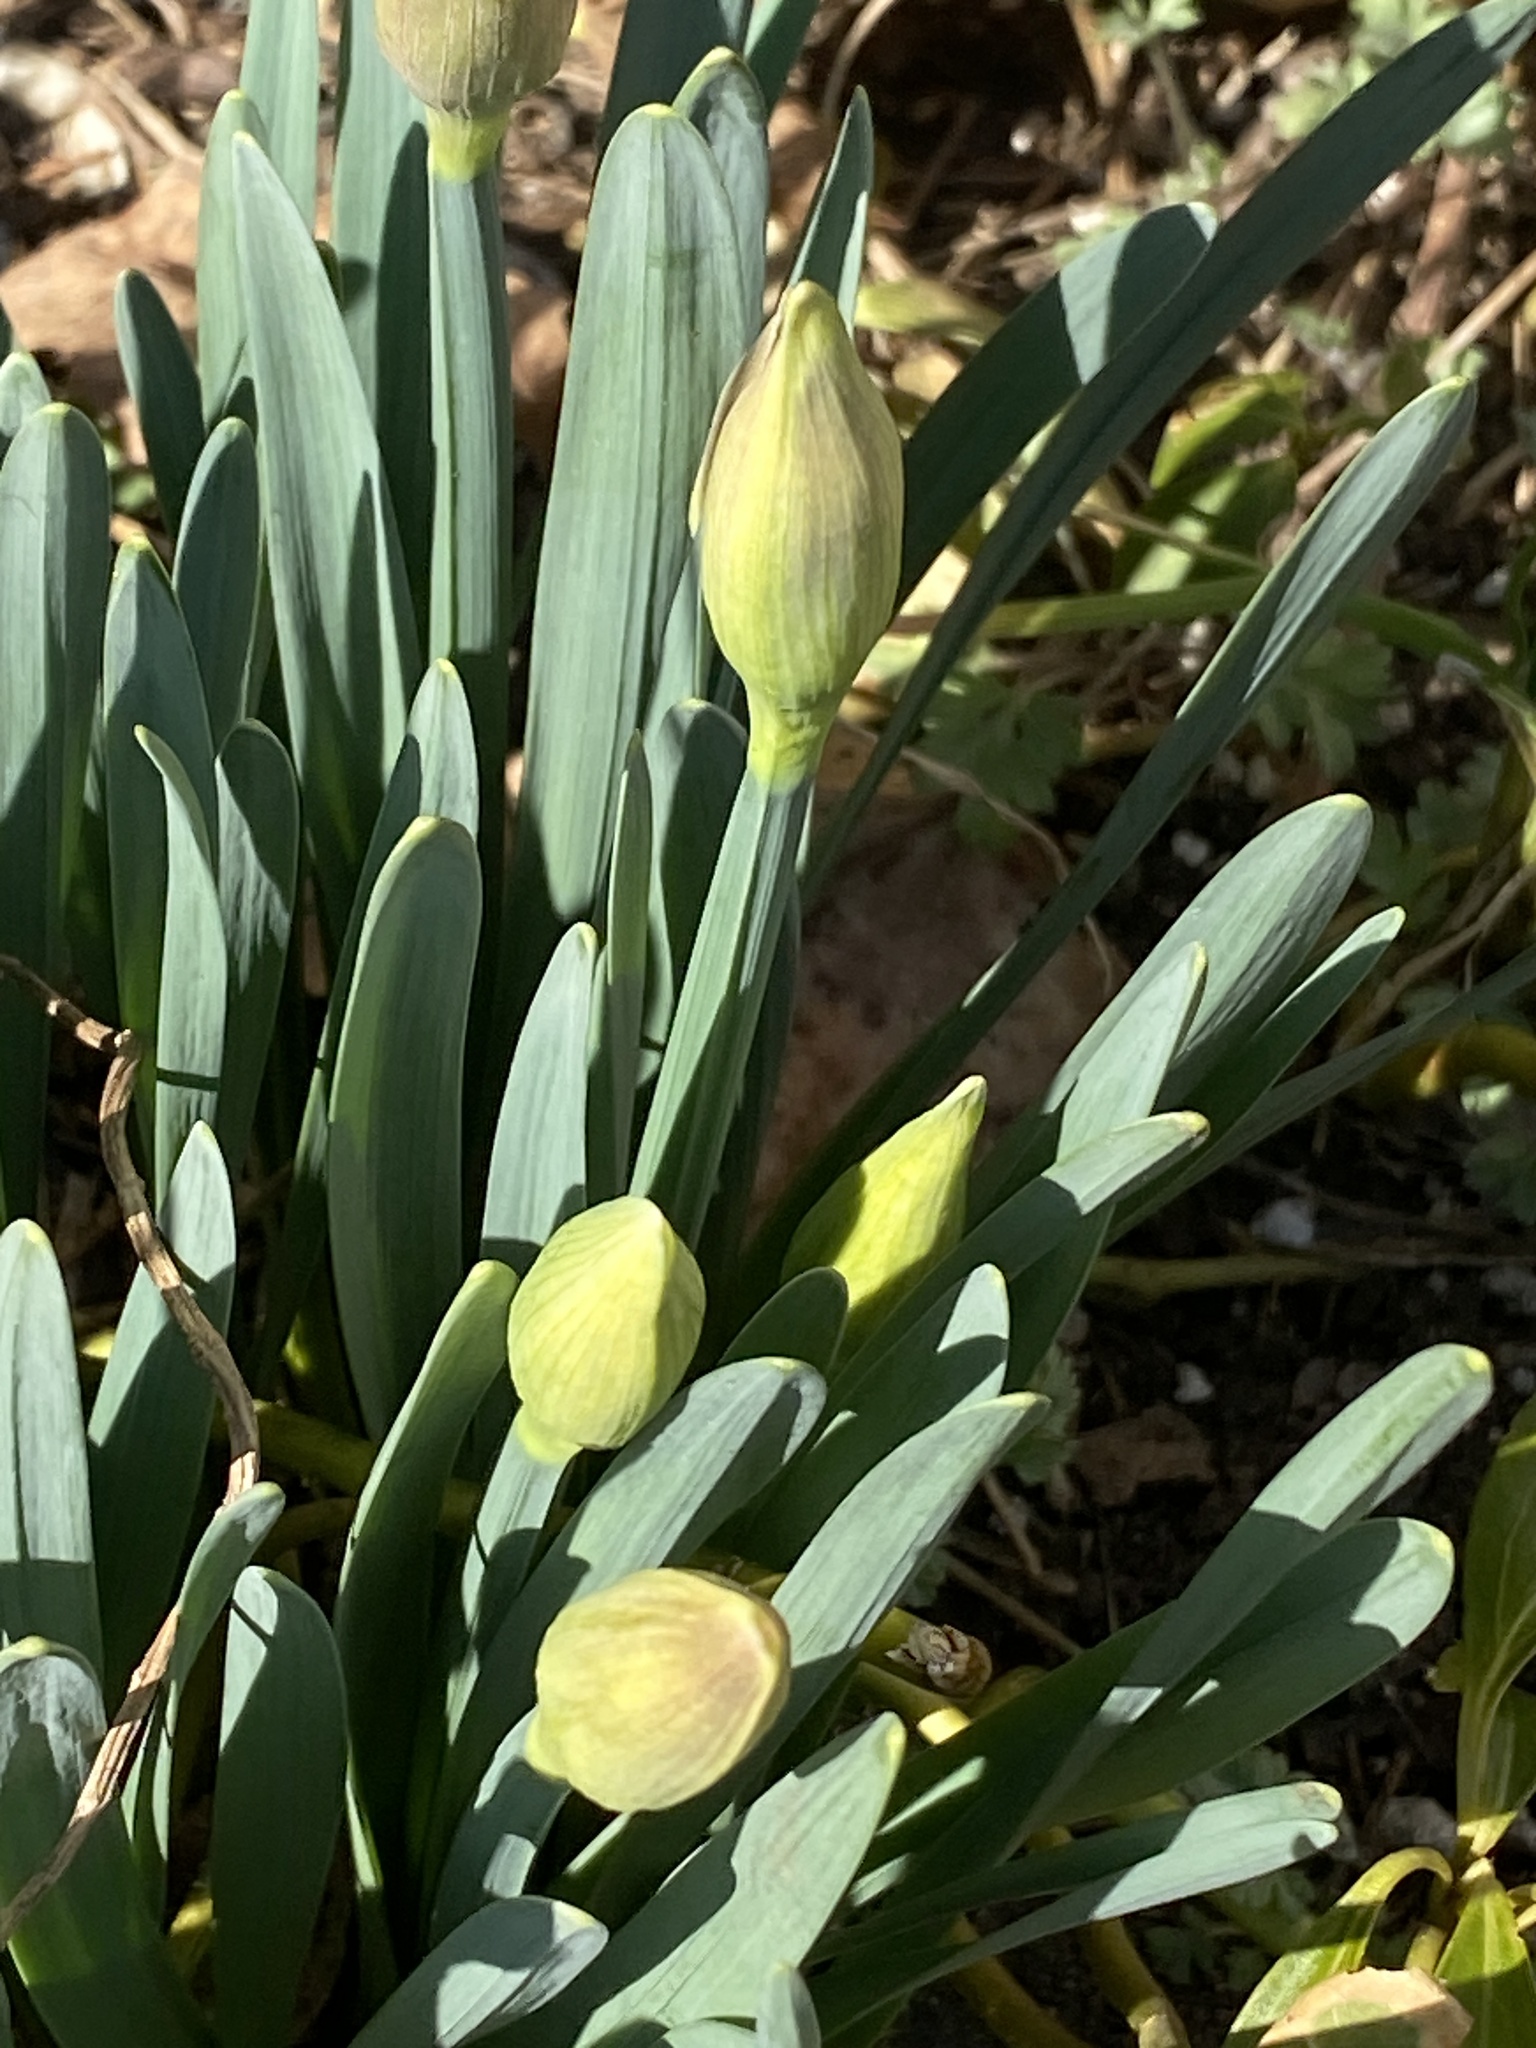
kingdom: Plantae
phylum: Tracheophyta
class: Liliopsida
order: Asparagales
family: Amaryllidaceae
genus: Narcissus
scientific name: Narcissus
